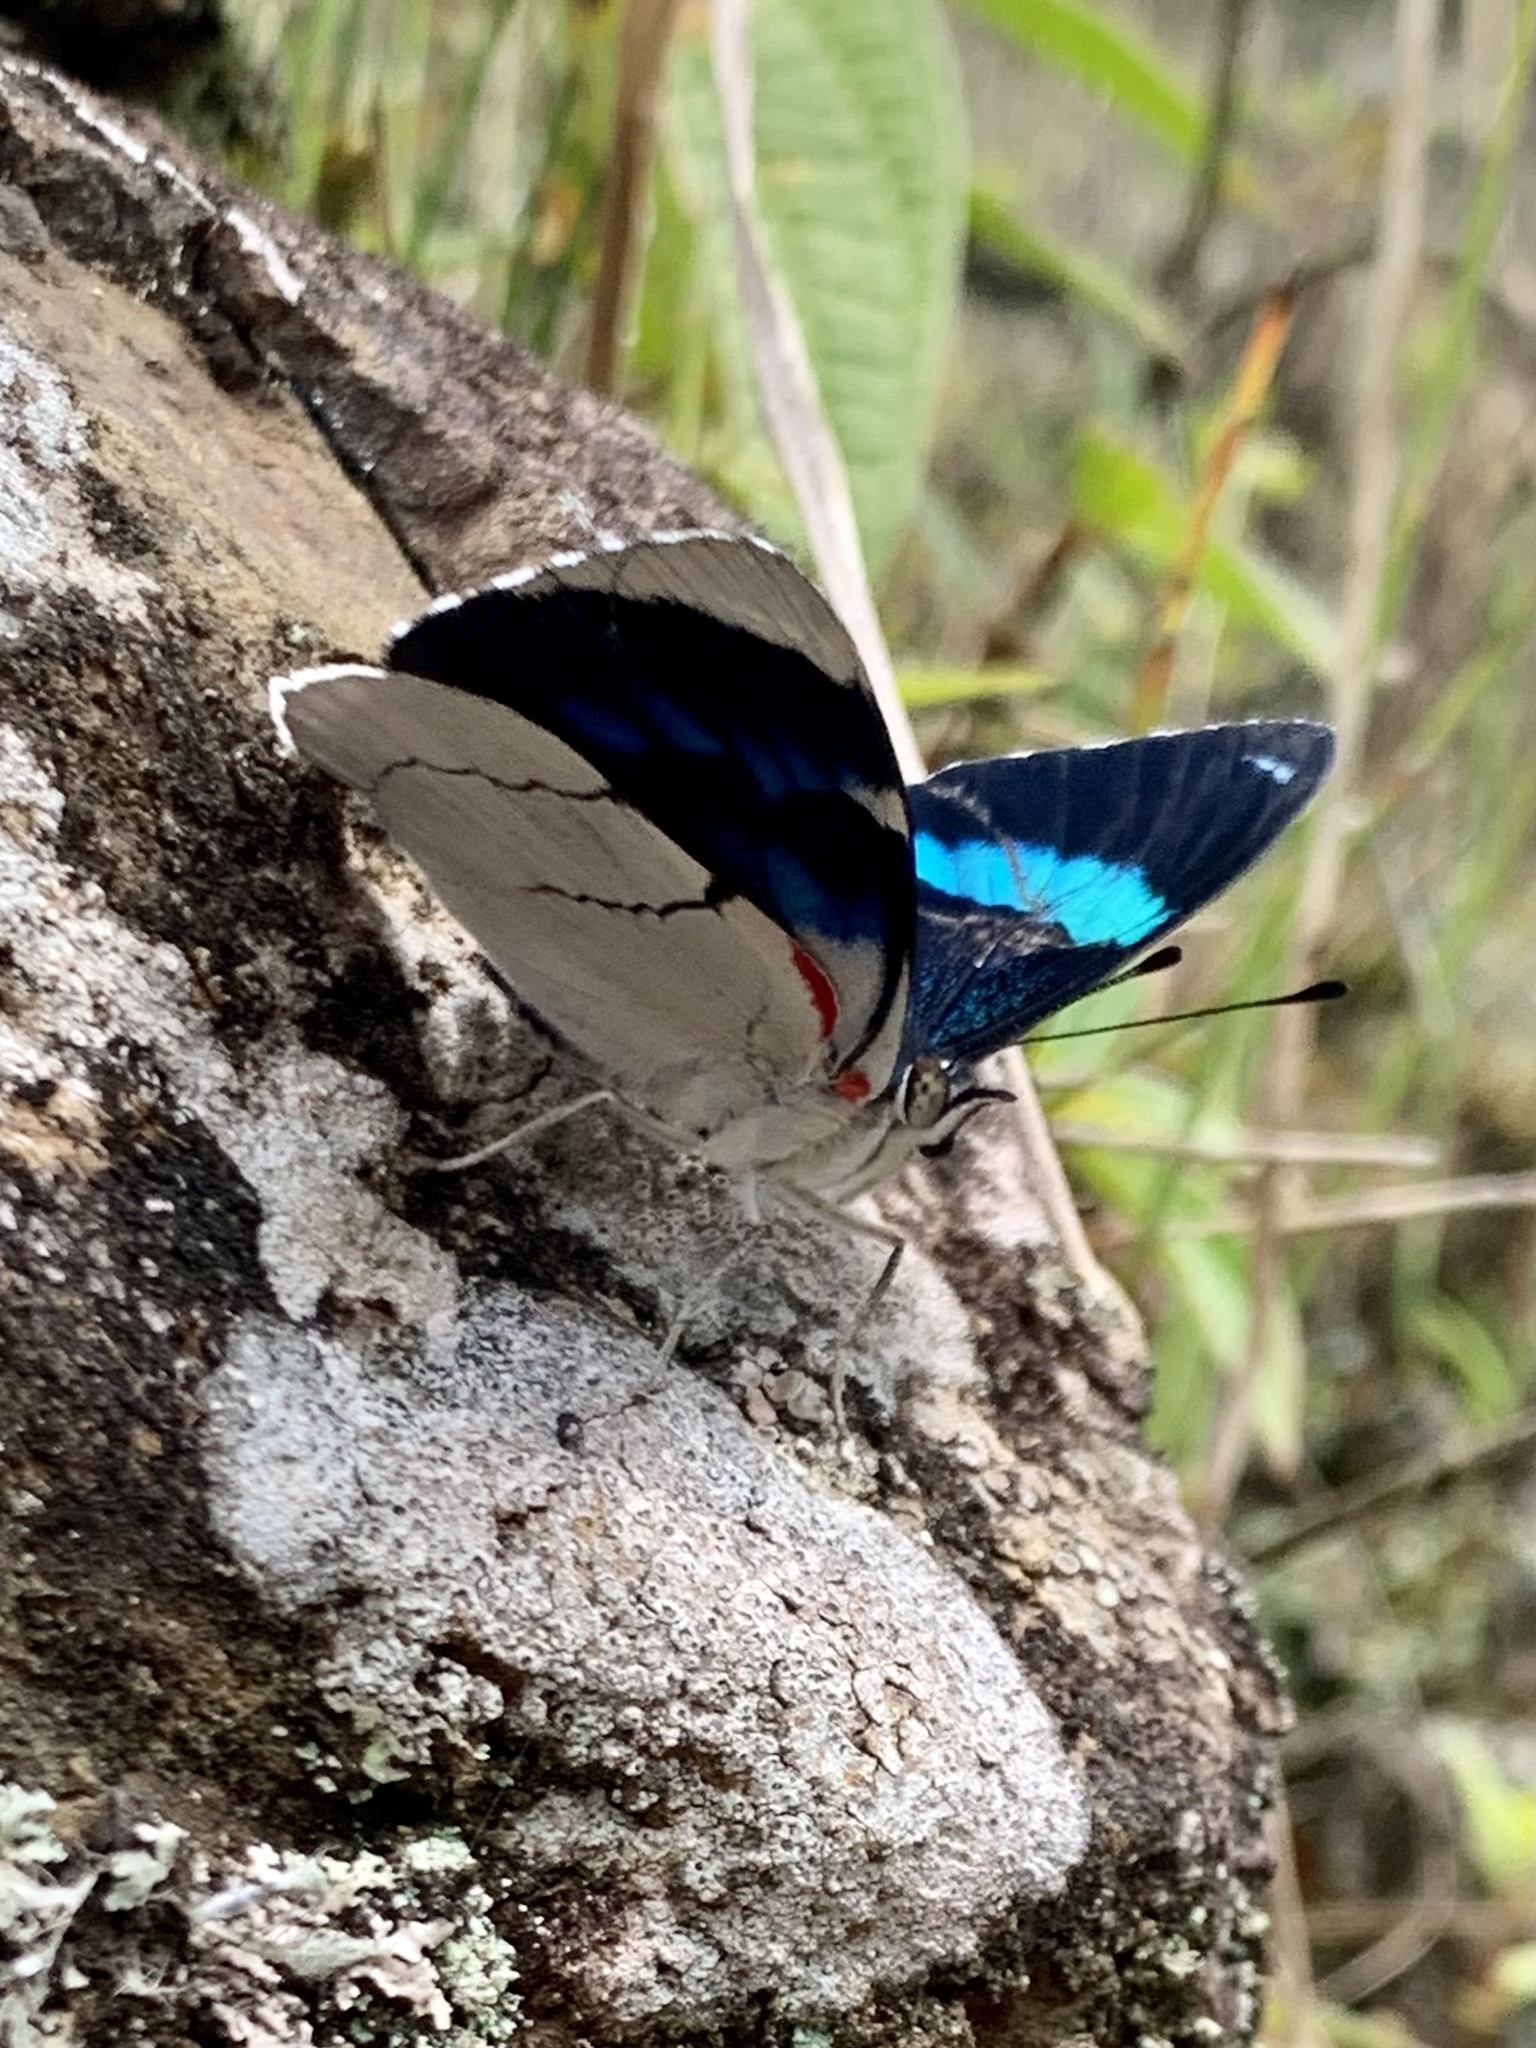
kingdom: Animalia
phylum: Arthropoda
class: Insecta
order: Lepidoptera
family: Nymphalidae
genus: Perisama
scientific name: Perisama bomplandii
